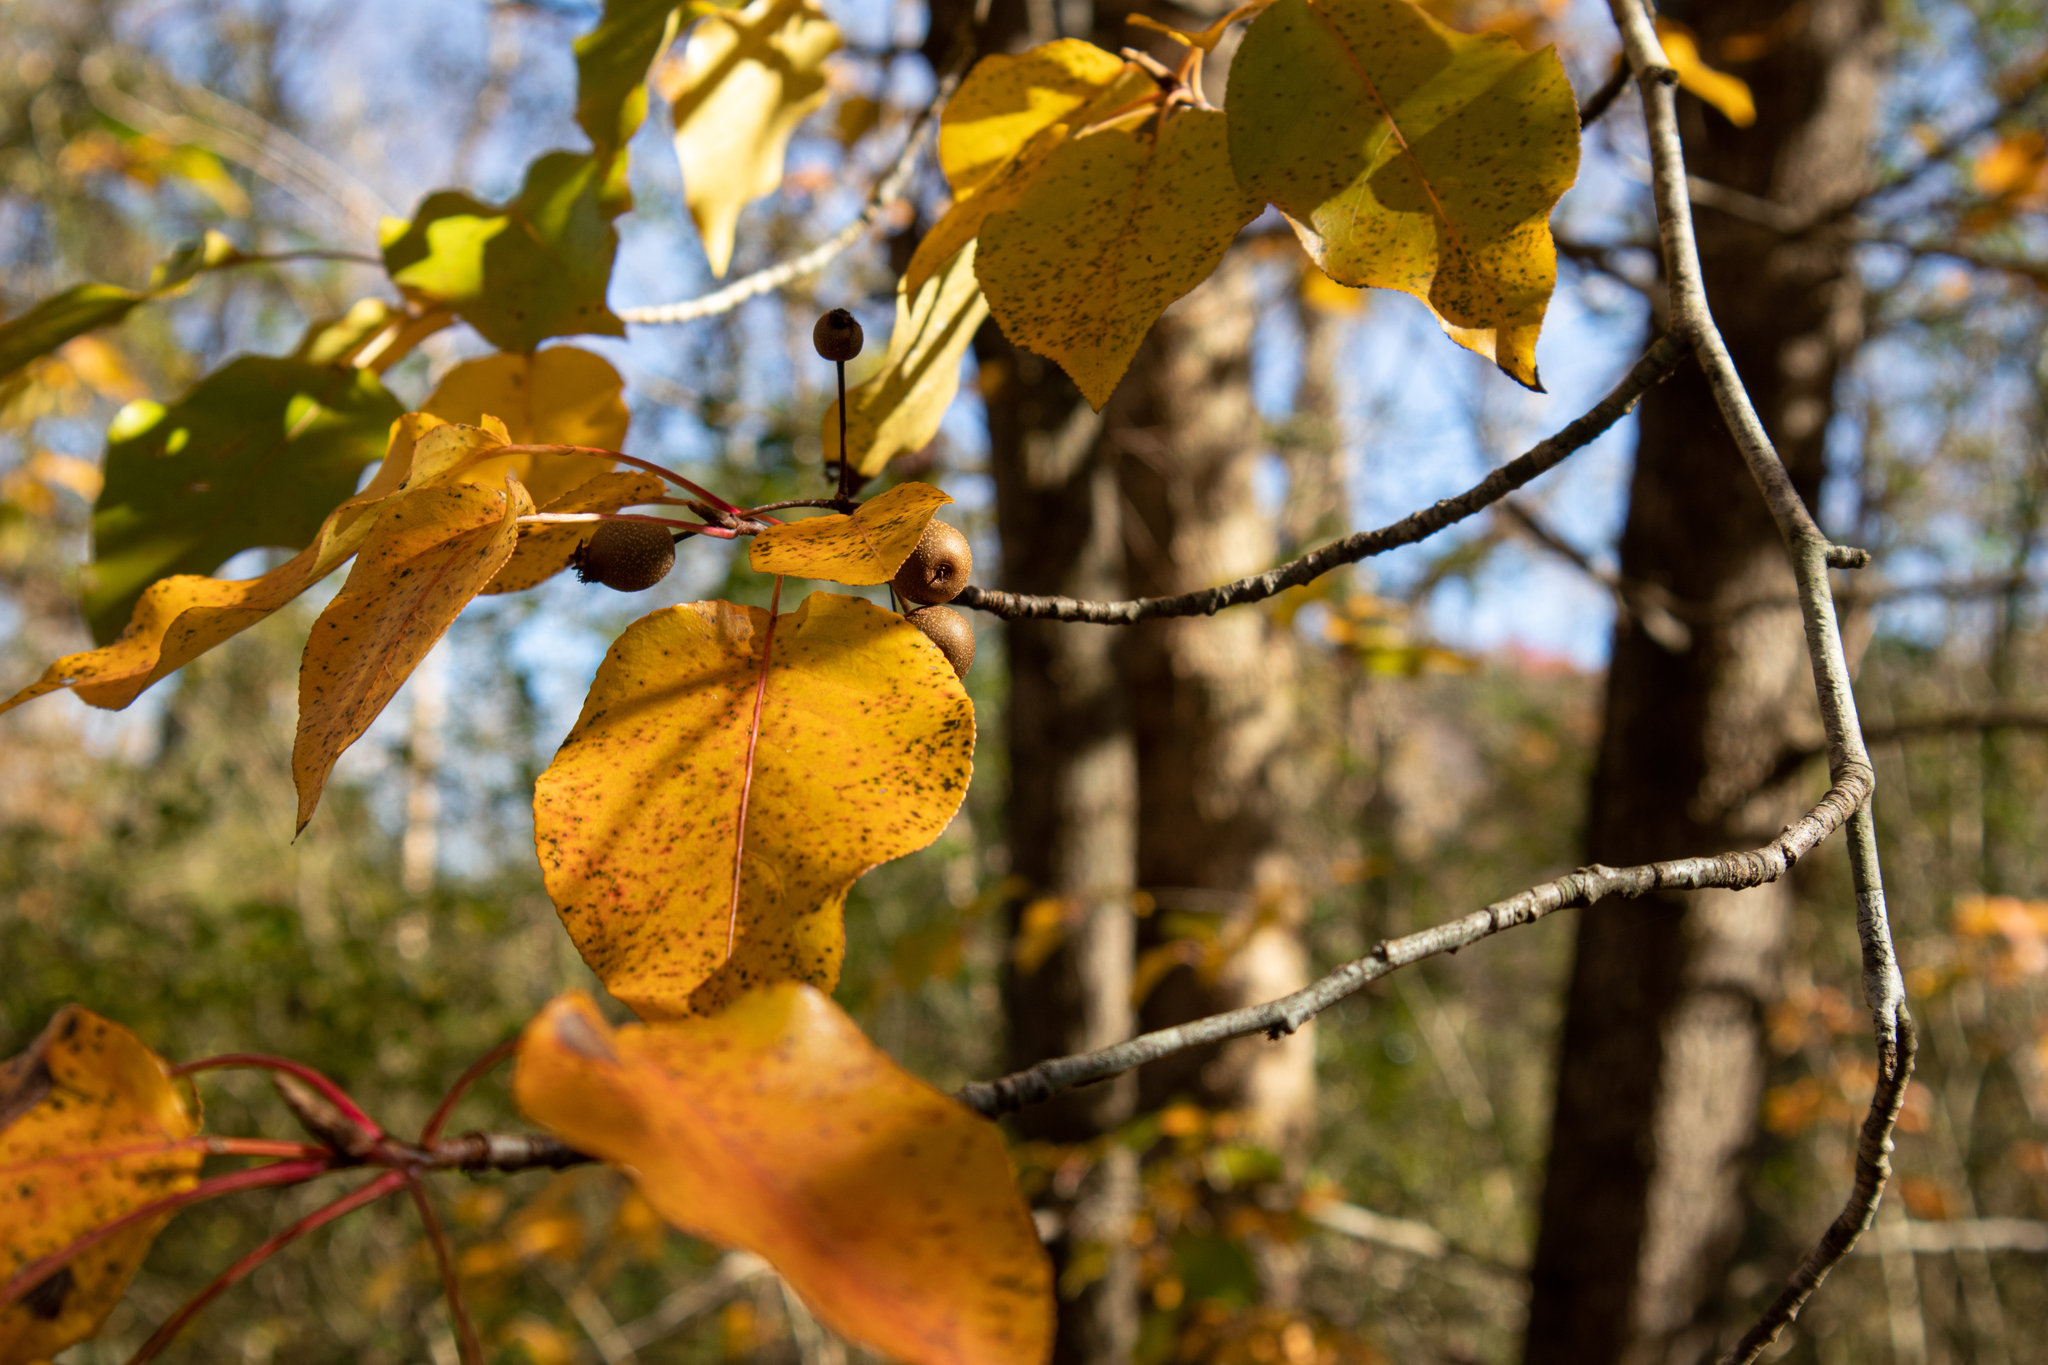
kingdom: Plantae
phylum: Tracheophyta
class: Magnoliopsida
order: Rosales
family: Rosaceae
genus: Pyrus
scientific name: Pyrus calleryana
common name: Callery pear
